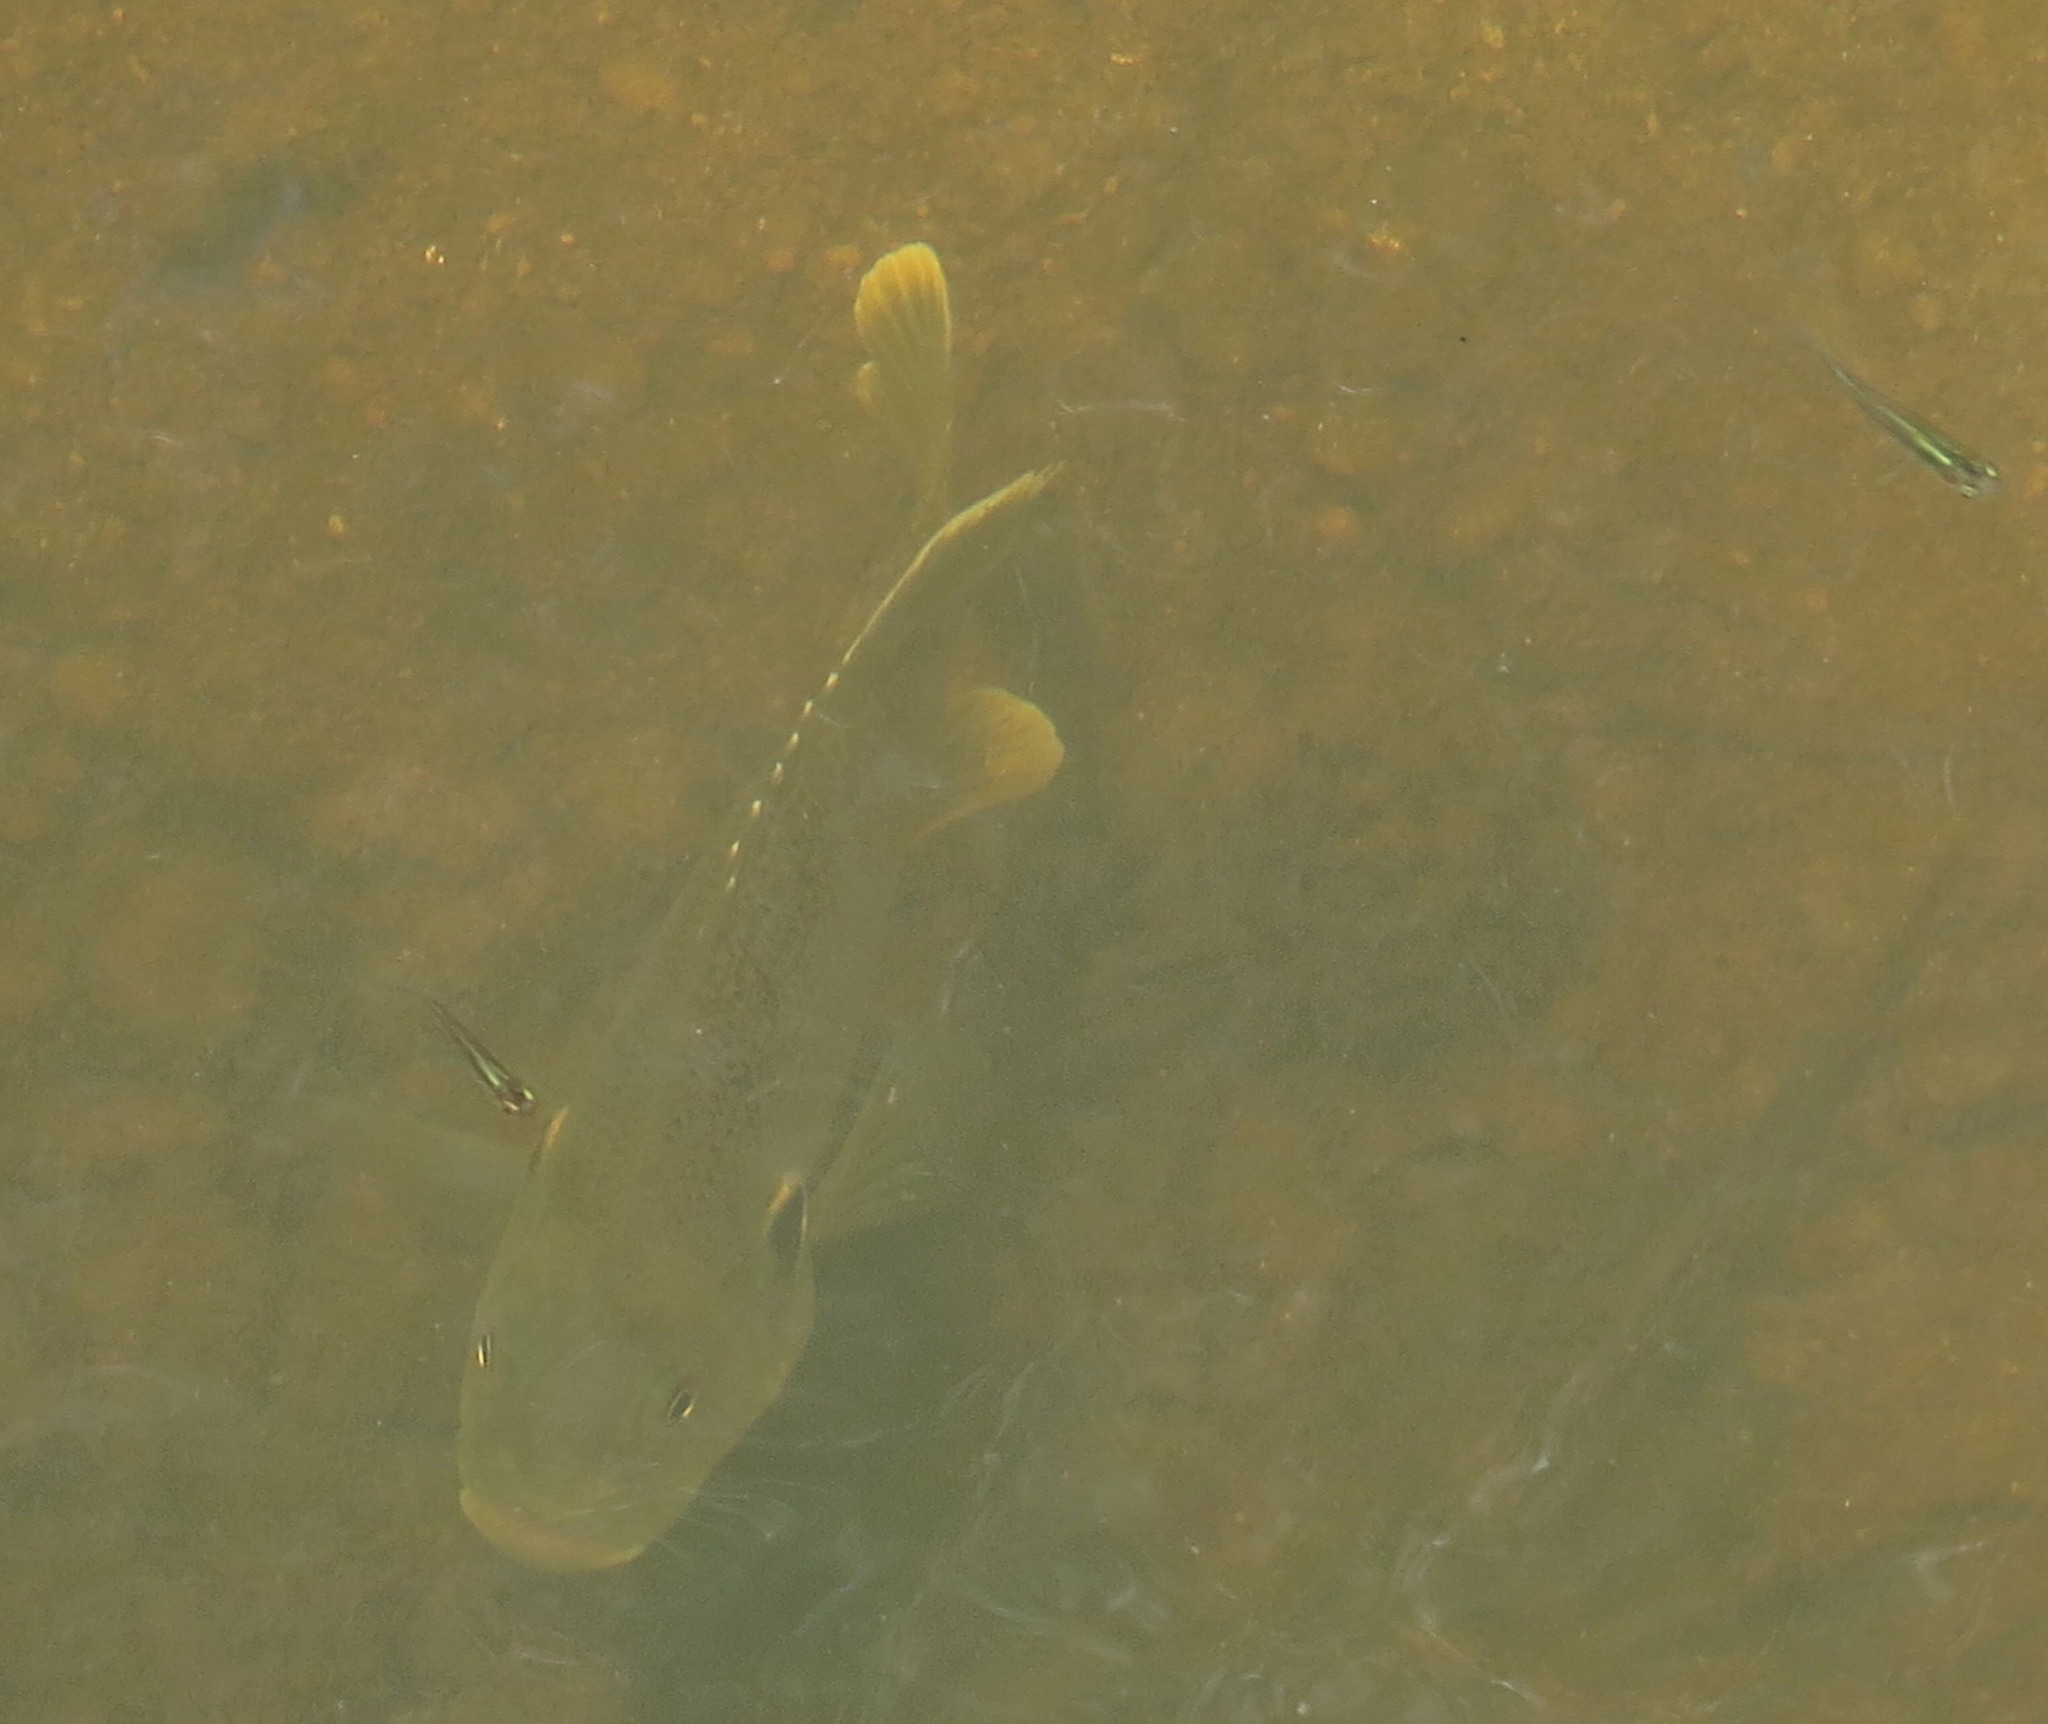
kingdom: Animalia
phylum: Chordata
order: Perciformes
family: Centrarchidae
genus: Lepomis
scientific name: Lepomis cyanellus
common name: Green sunfish
